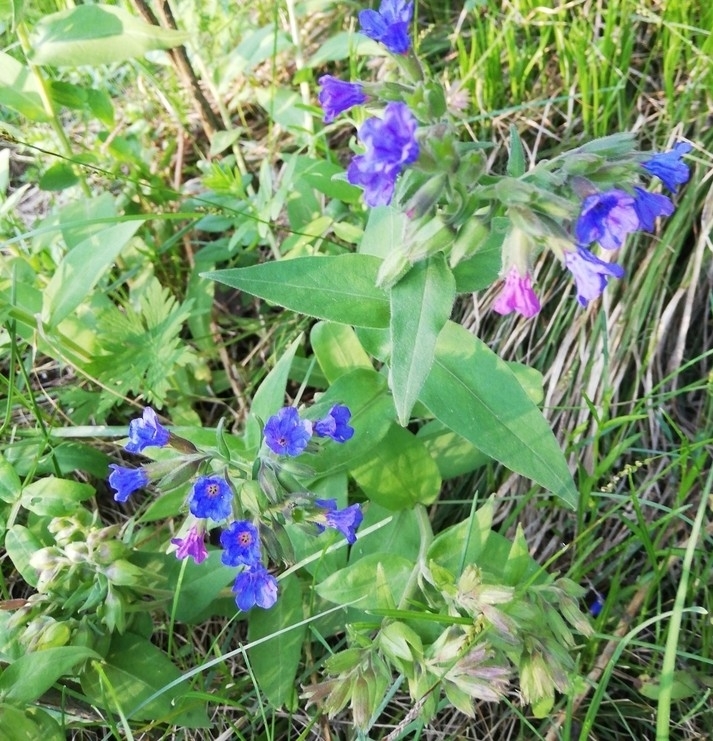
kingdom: Plantae
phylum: Tracheophyta
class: Magnoliopsida
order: Boraginales
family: Boraginaceae
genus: Pulmonaria
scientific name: Pulmonaria mollis
